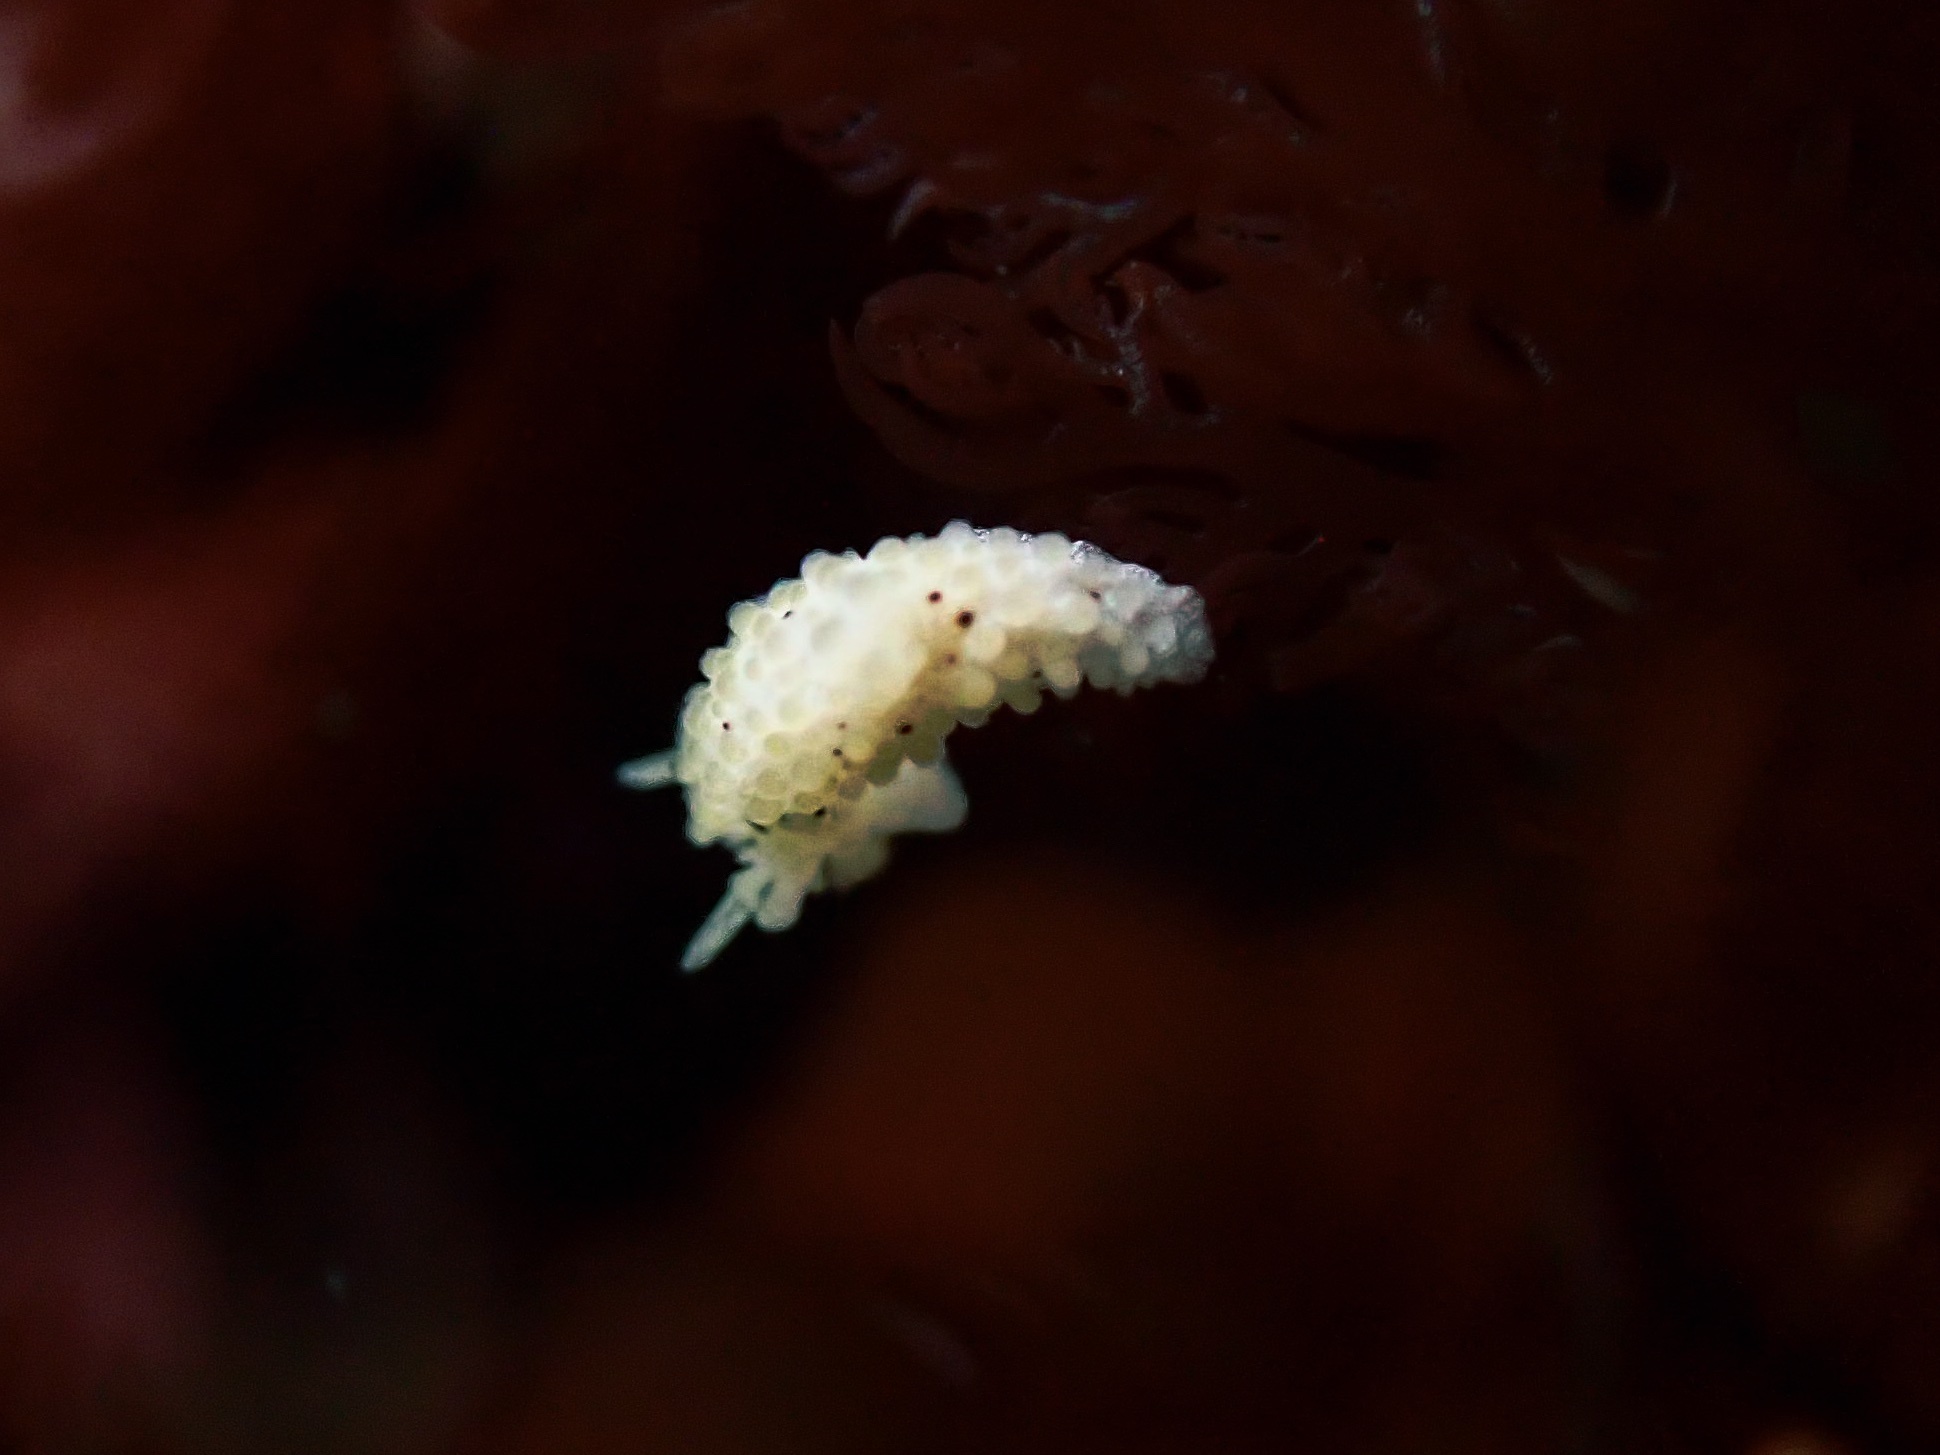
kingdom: Animalia
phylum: Mollusca
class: Gastropoda
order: Nudibranchia
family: Aegiridae
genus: Aegires
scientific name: Aegires albopunctatus
